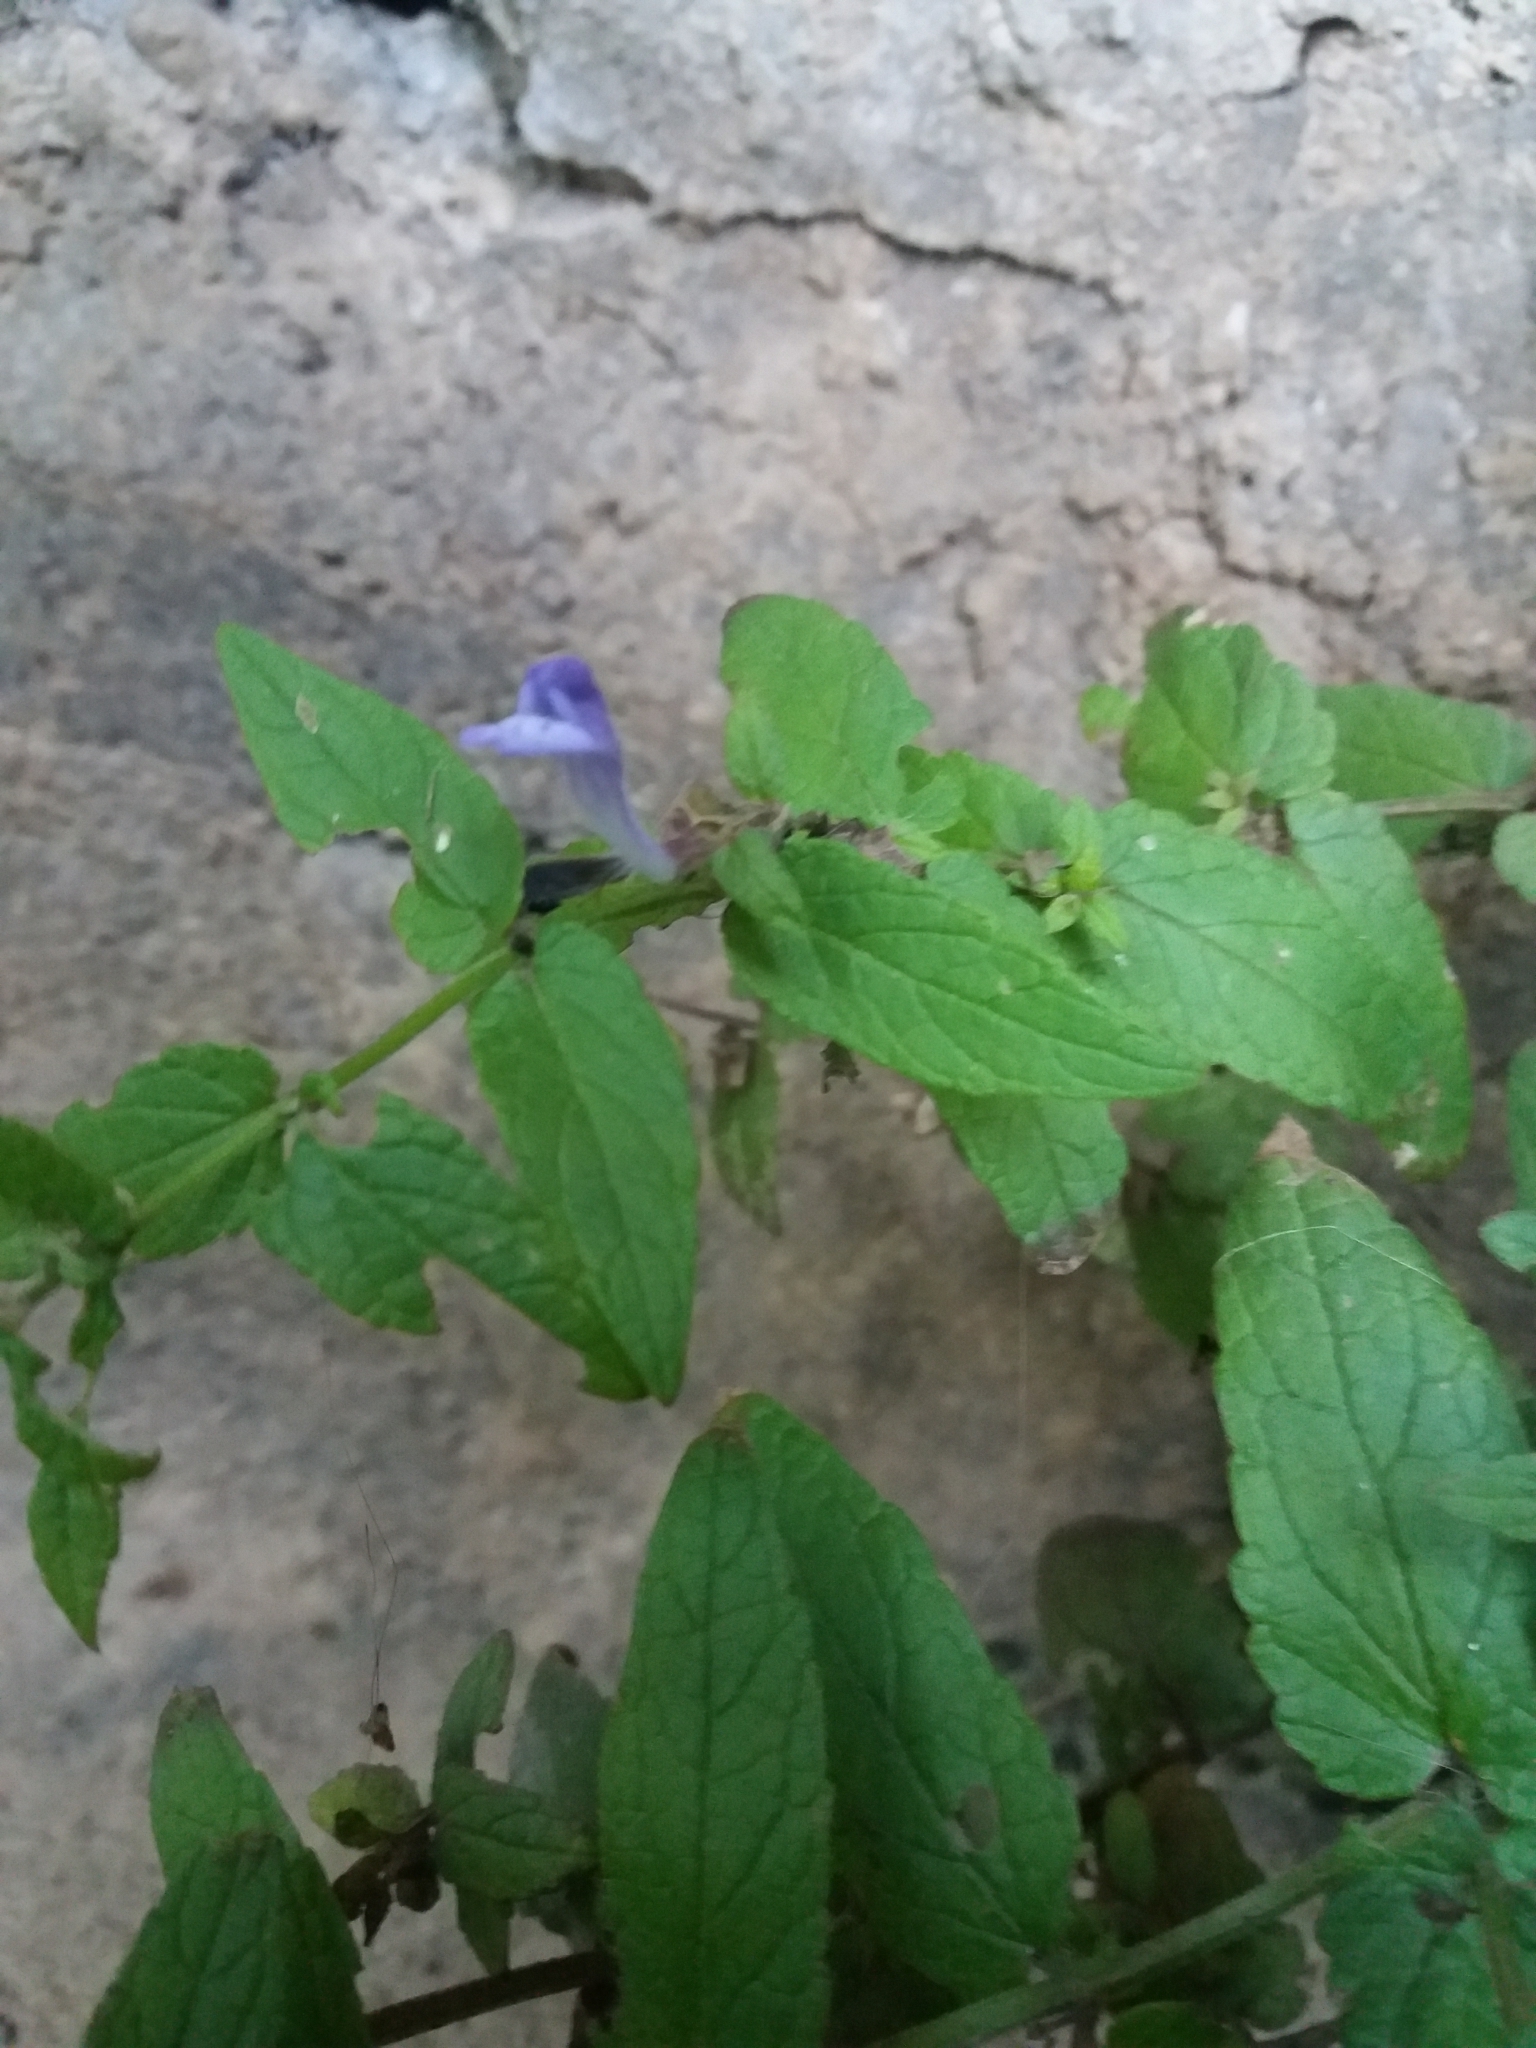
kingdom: Plantae
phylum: Tracheophyta
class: Magnoliopsida
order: Lamiales
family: Lamiaceae
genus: Scutellaria
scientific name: Scutellaria galericulata
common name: Skullcap
